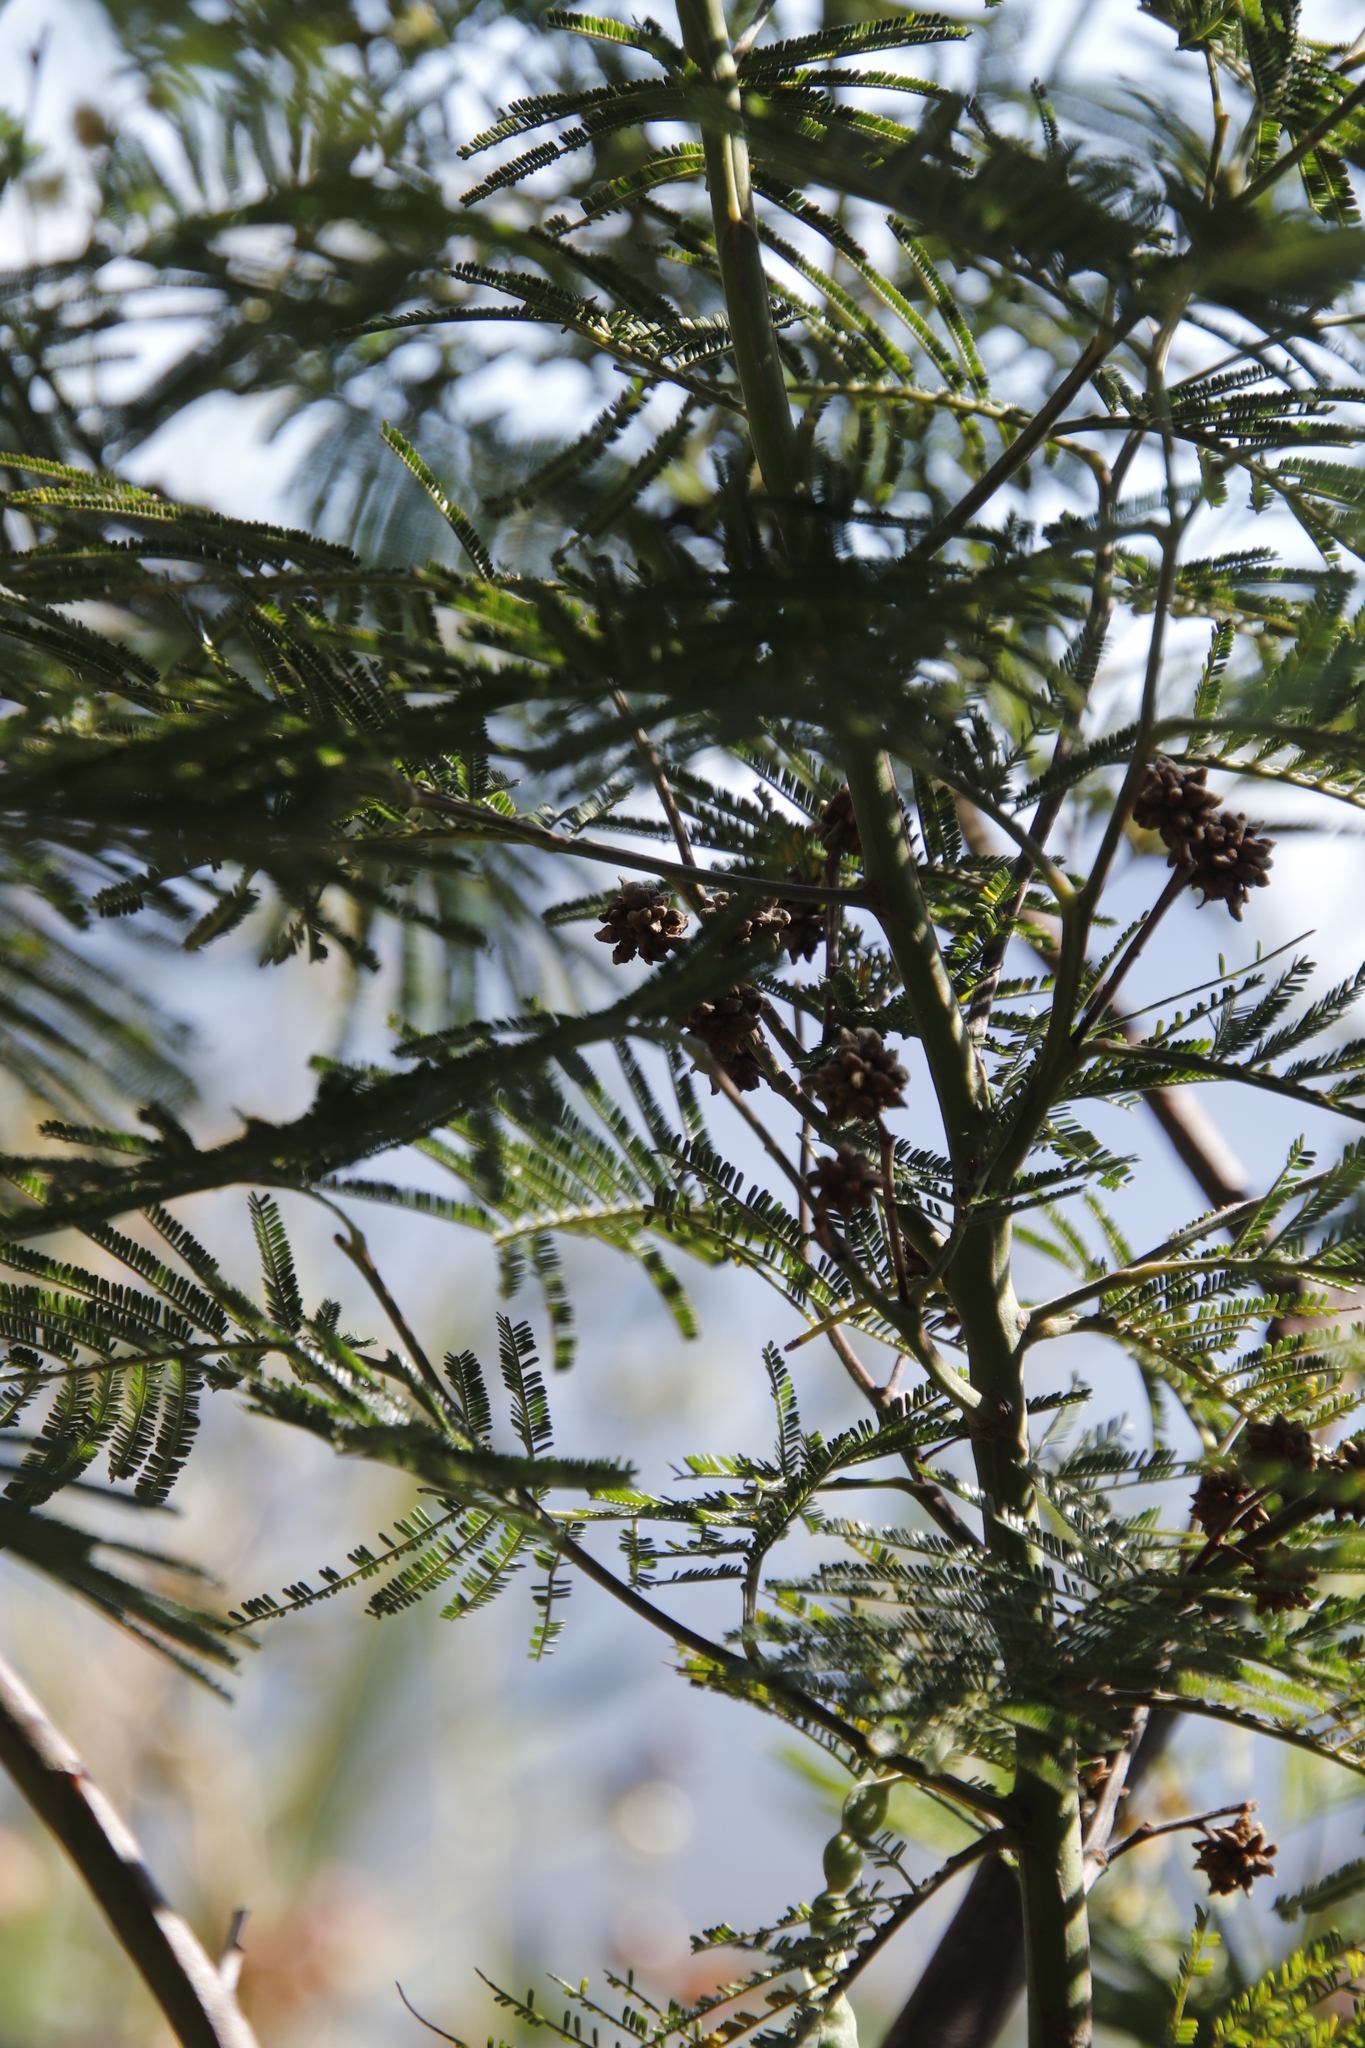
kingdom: Plantae
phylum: Tracheophyta
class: Magnoliopsida
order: Fabales
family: Fabaceae
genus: Acacia
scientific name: Acacia mearnsii
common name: Black wattle
